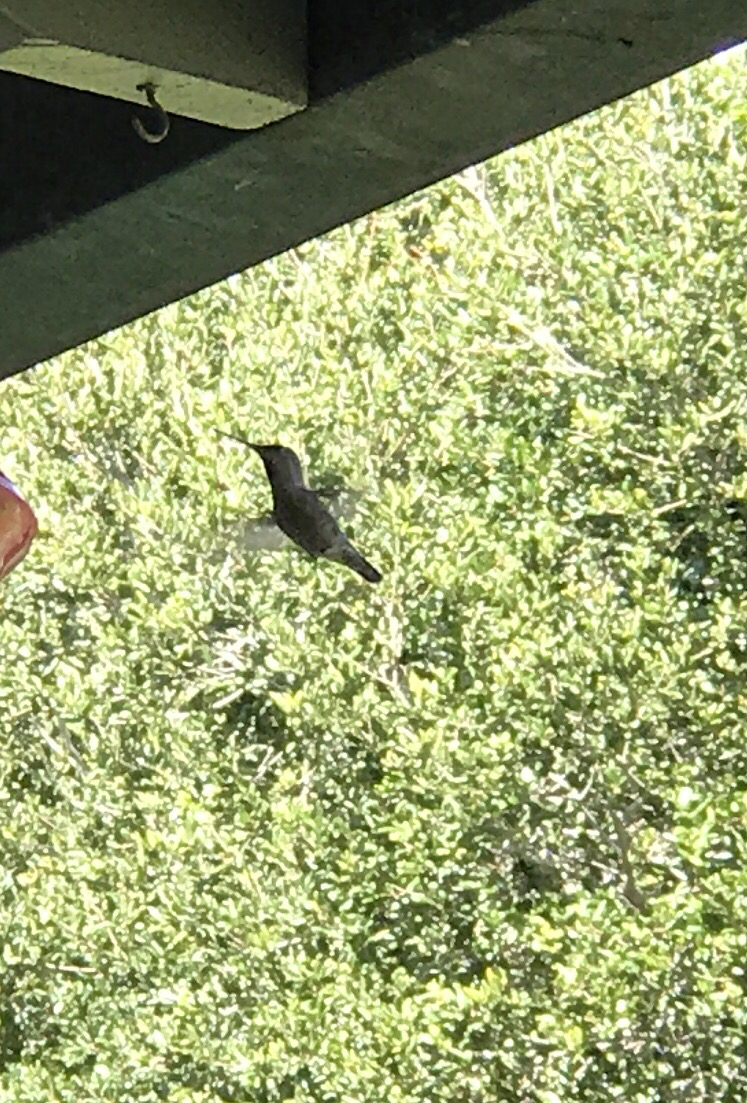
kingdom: Animalia
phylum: Chordata
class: Aves
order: Apodiformes
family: Trochilidae
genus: Calypte
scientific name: Calypte anna
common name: Anna's hummingbird
